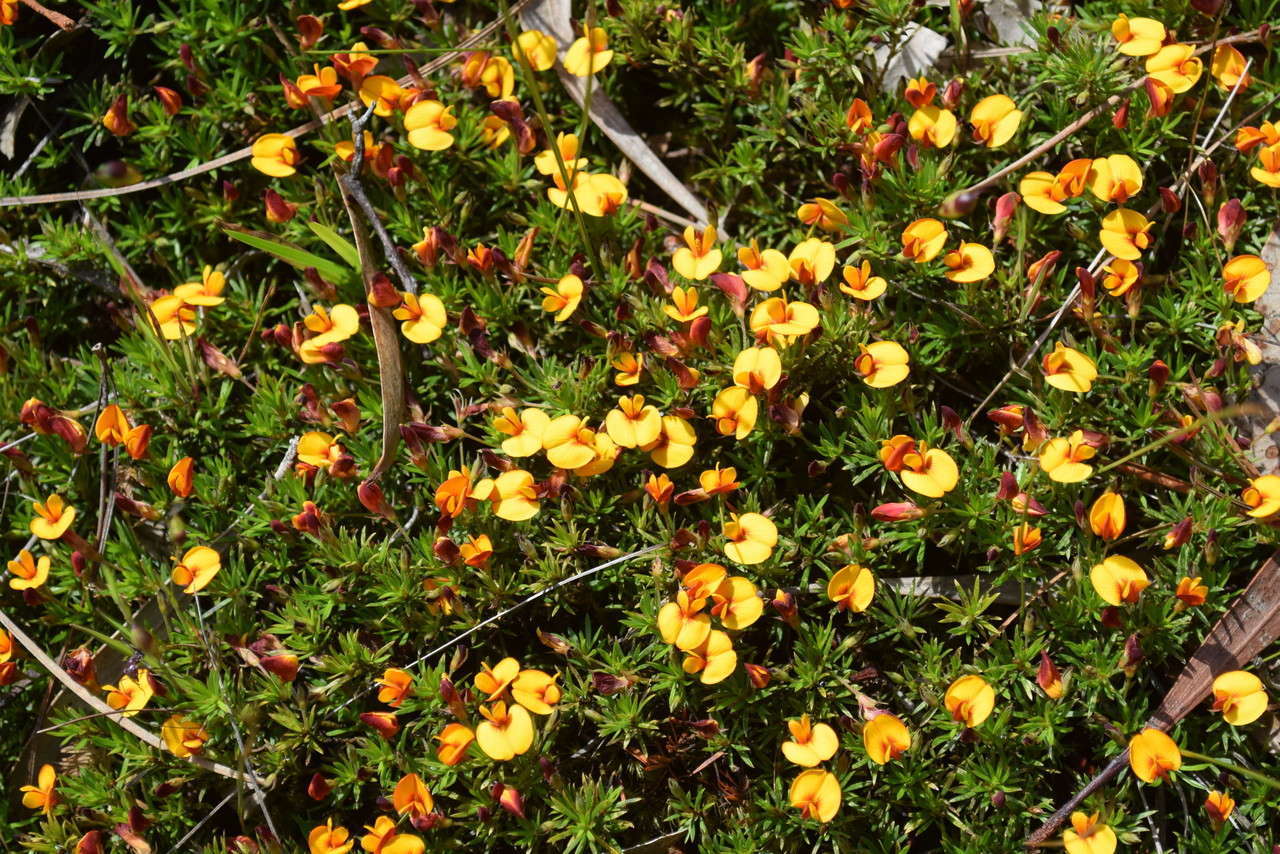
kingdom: Plantae
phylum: Tracheophyta
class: Magnoliopsida
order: Fabales
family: Fabaceae
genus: Pultenaea
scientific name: Pultenaea pedunculata
